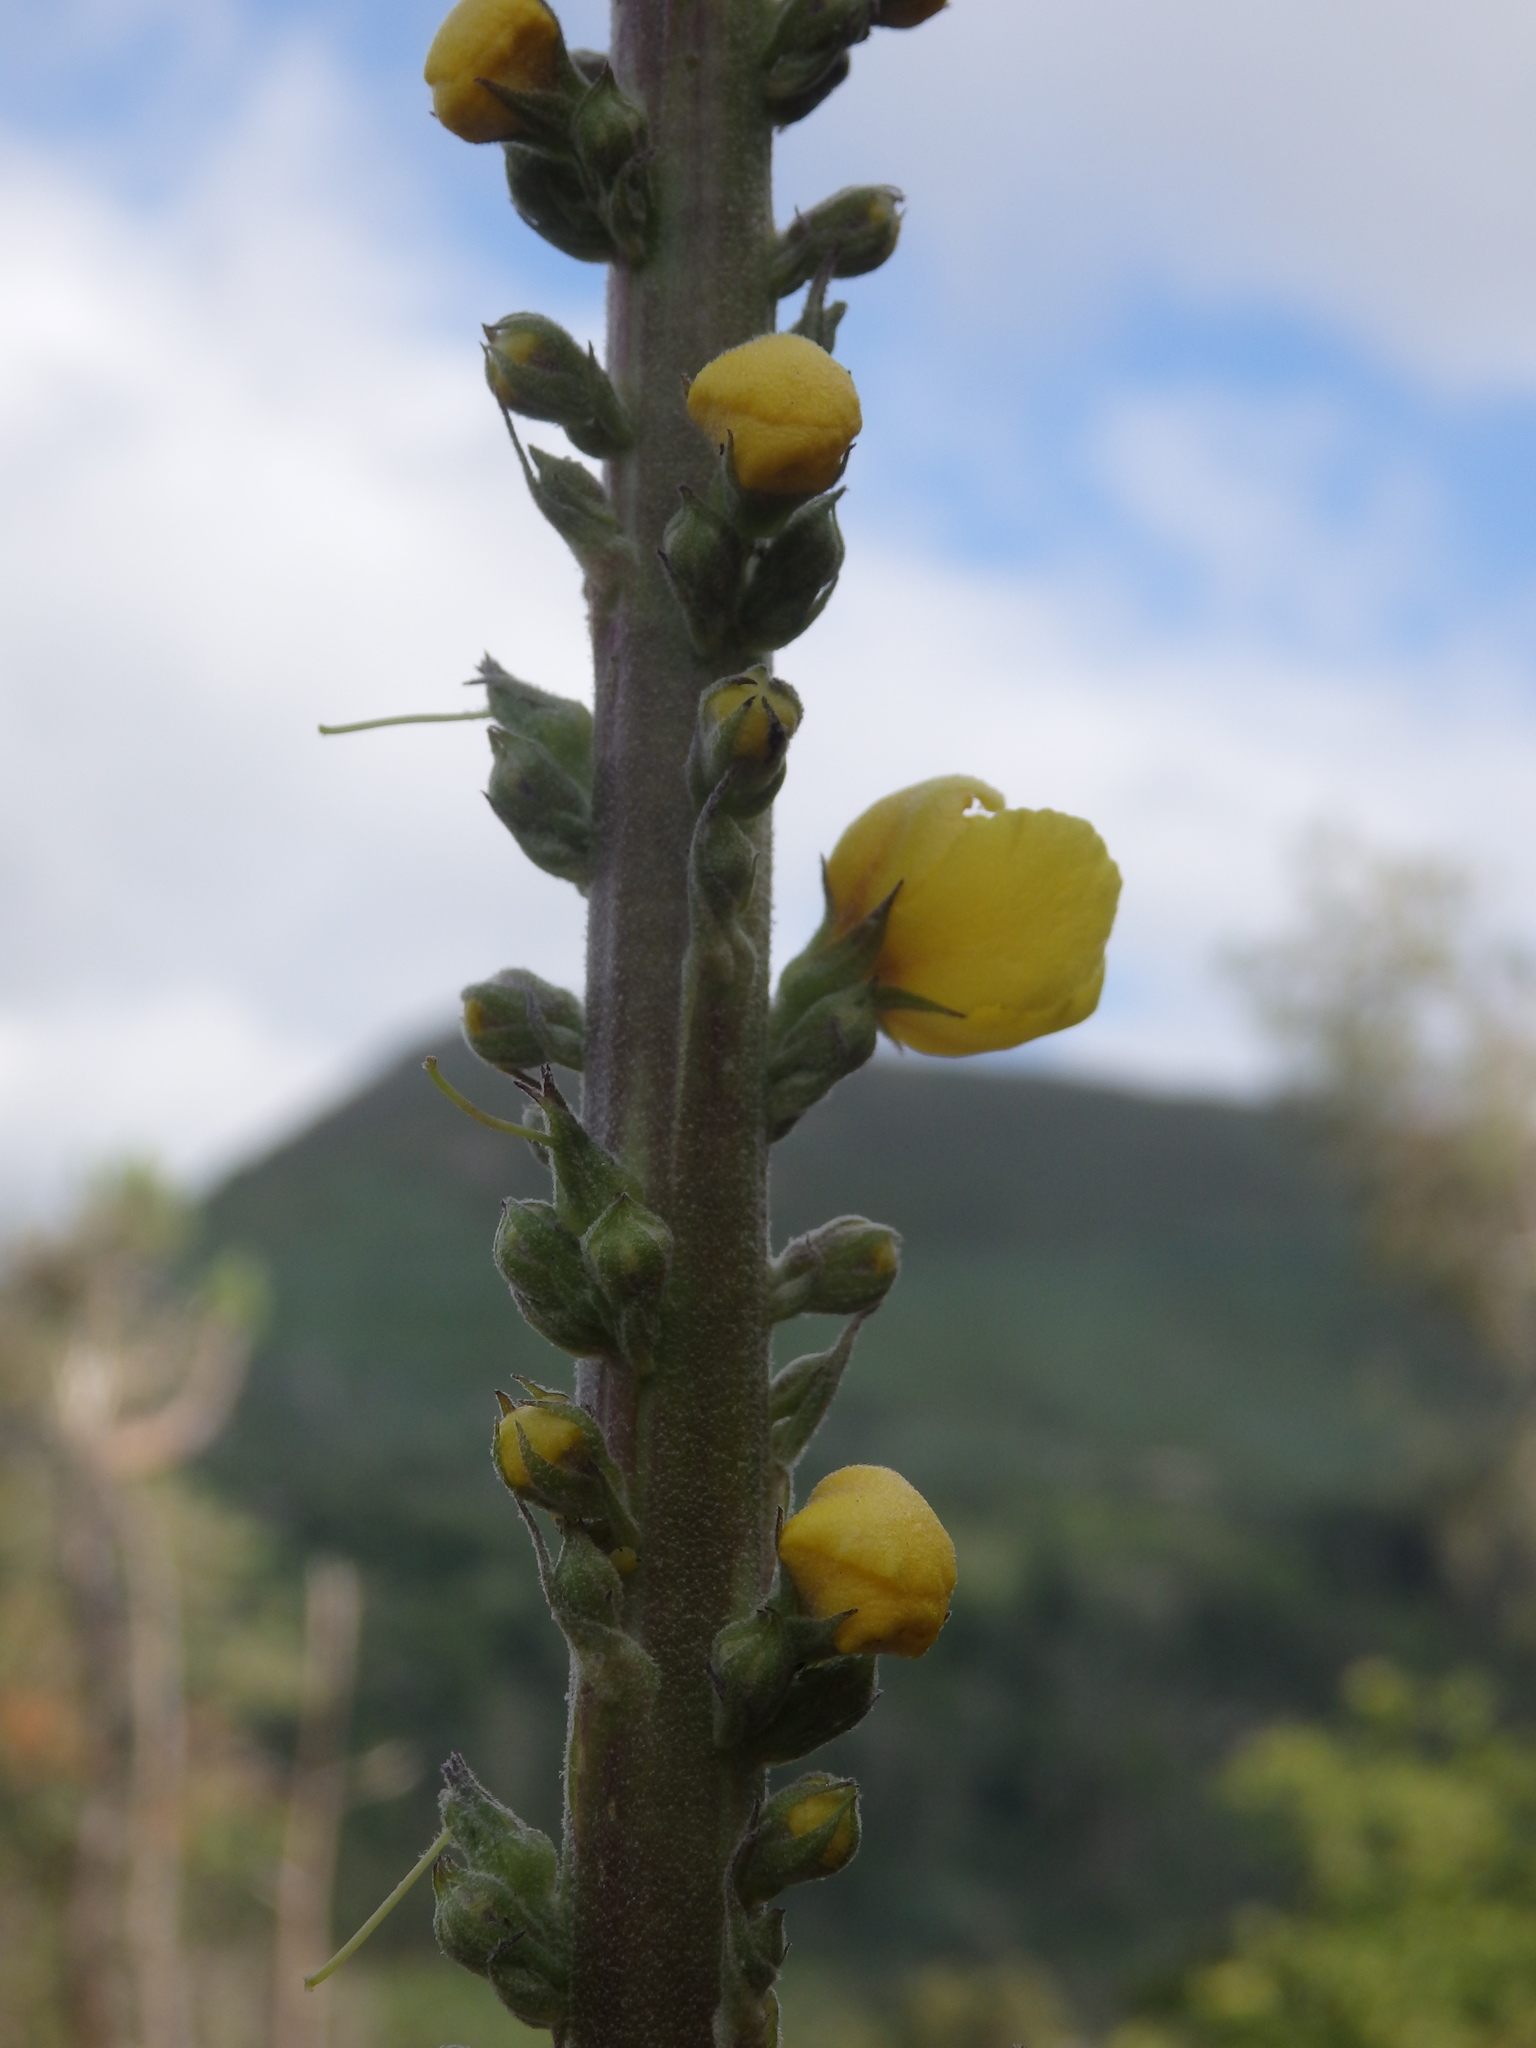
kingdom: Plantae
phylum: Tracheophyta
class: Magnoliopsida
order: Lamiales
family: Scrophulariaceae
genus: Verbascum
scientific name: Verbascum virgatum
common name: Twiggy mullein
